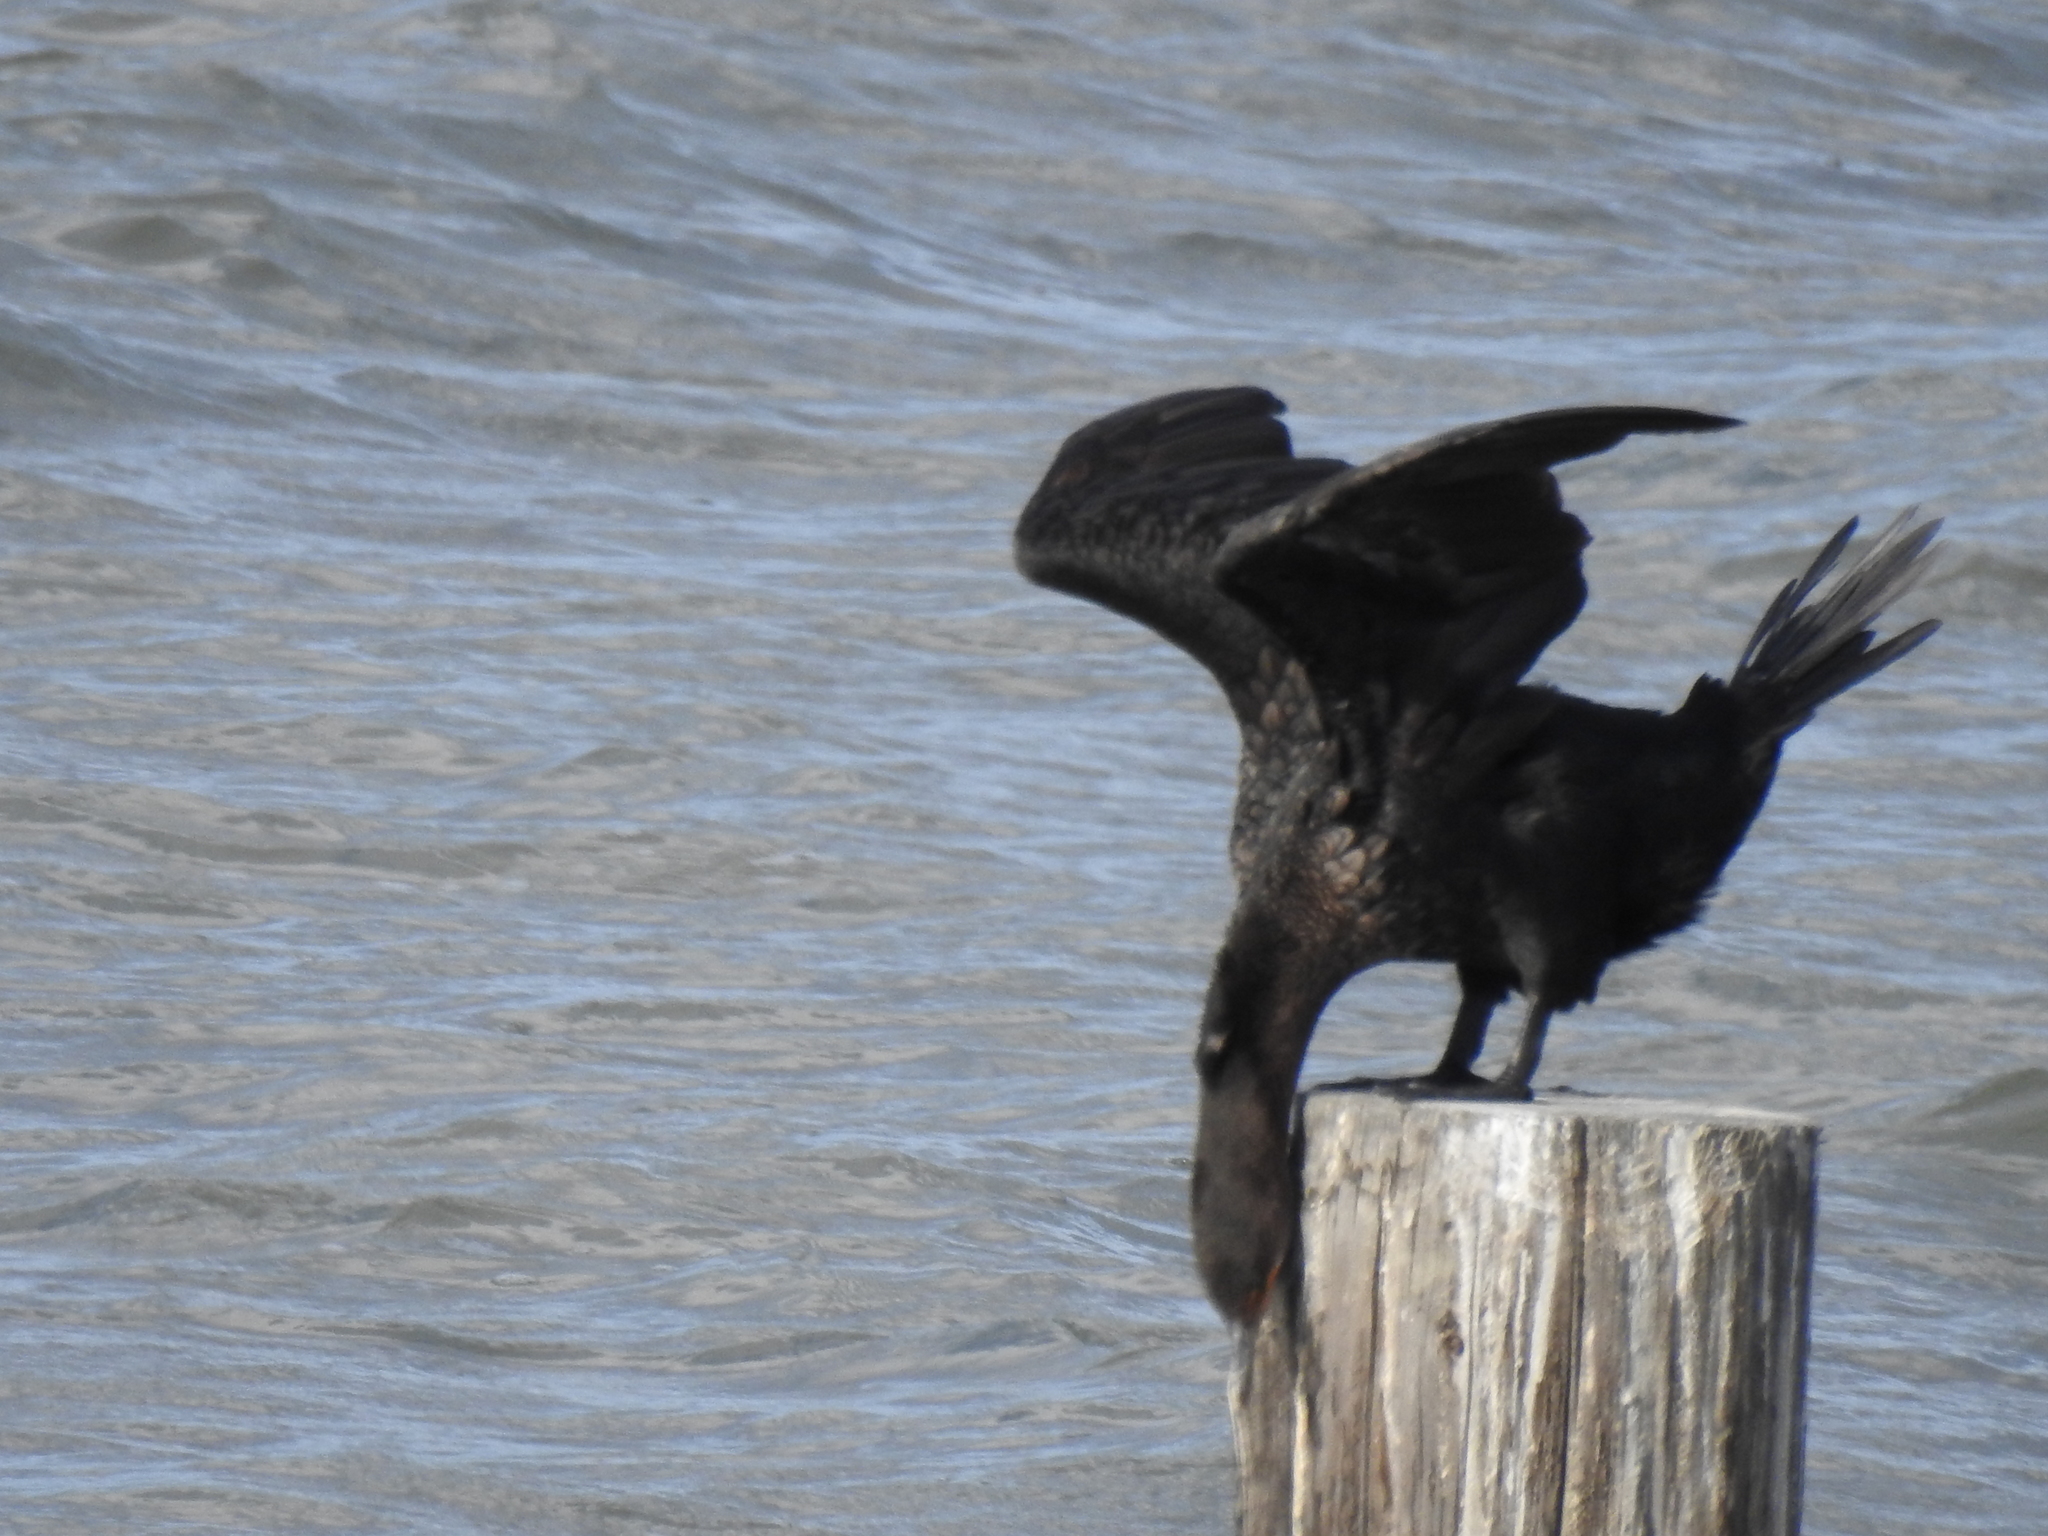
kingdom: Animalia
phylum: Chordata
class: Aves
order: Suliformes
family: Phalacrocoracidae
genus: Phalacrocorax
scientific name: Phalacrocorax auritus
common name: Double-crested cormorant
